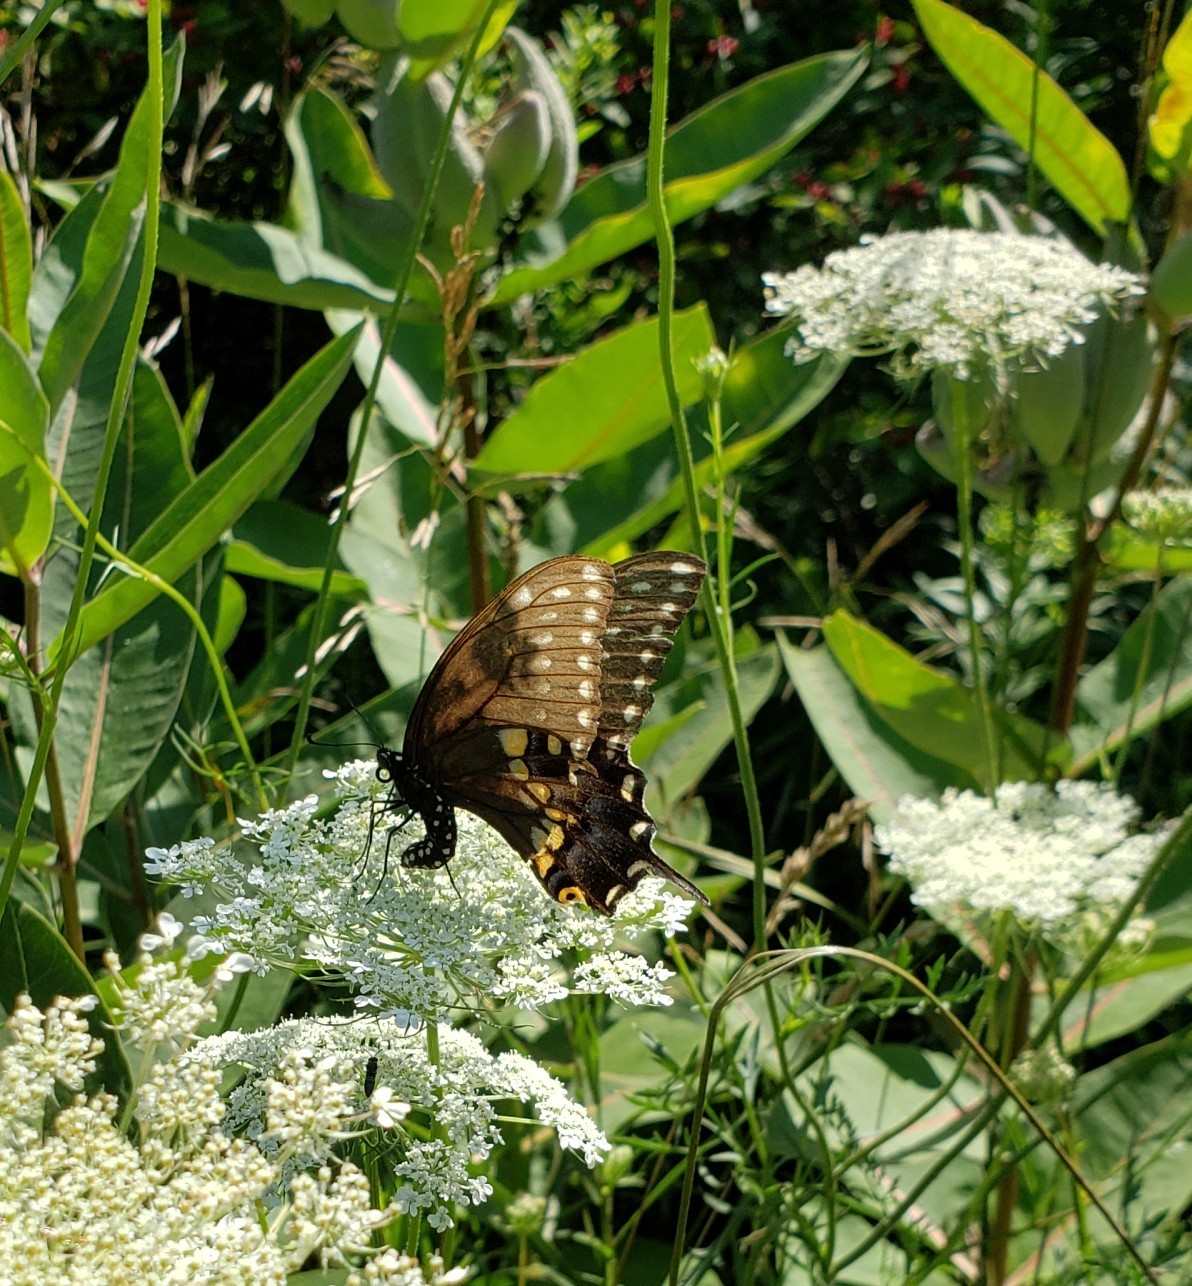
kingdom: Animalia
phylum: Arthropoda
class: Insecta
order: Lepidoptera
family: Papilionidae
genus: Papilio
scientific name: Papilio polyxenes
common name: Black swallowtail
